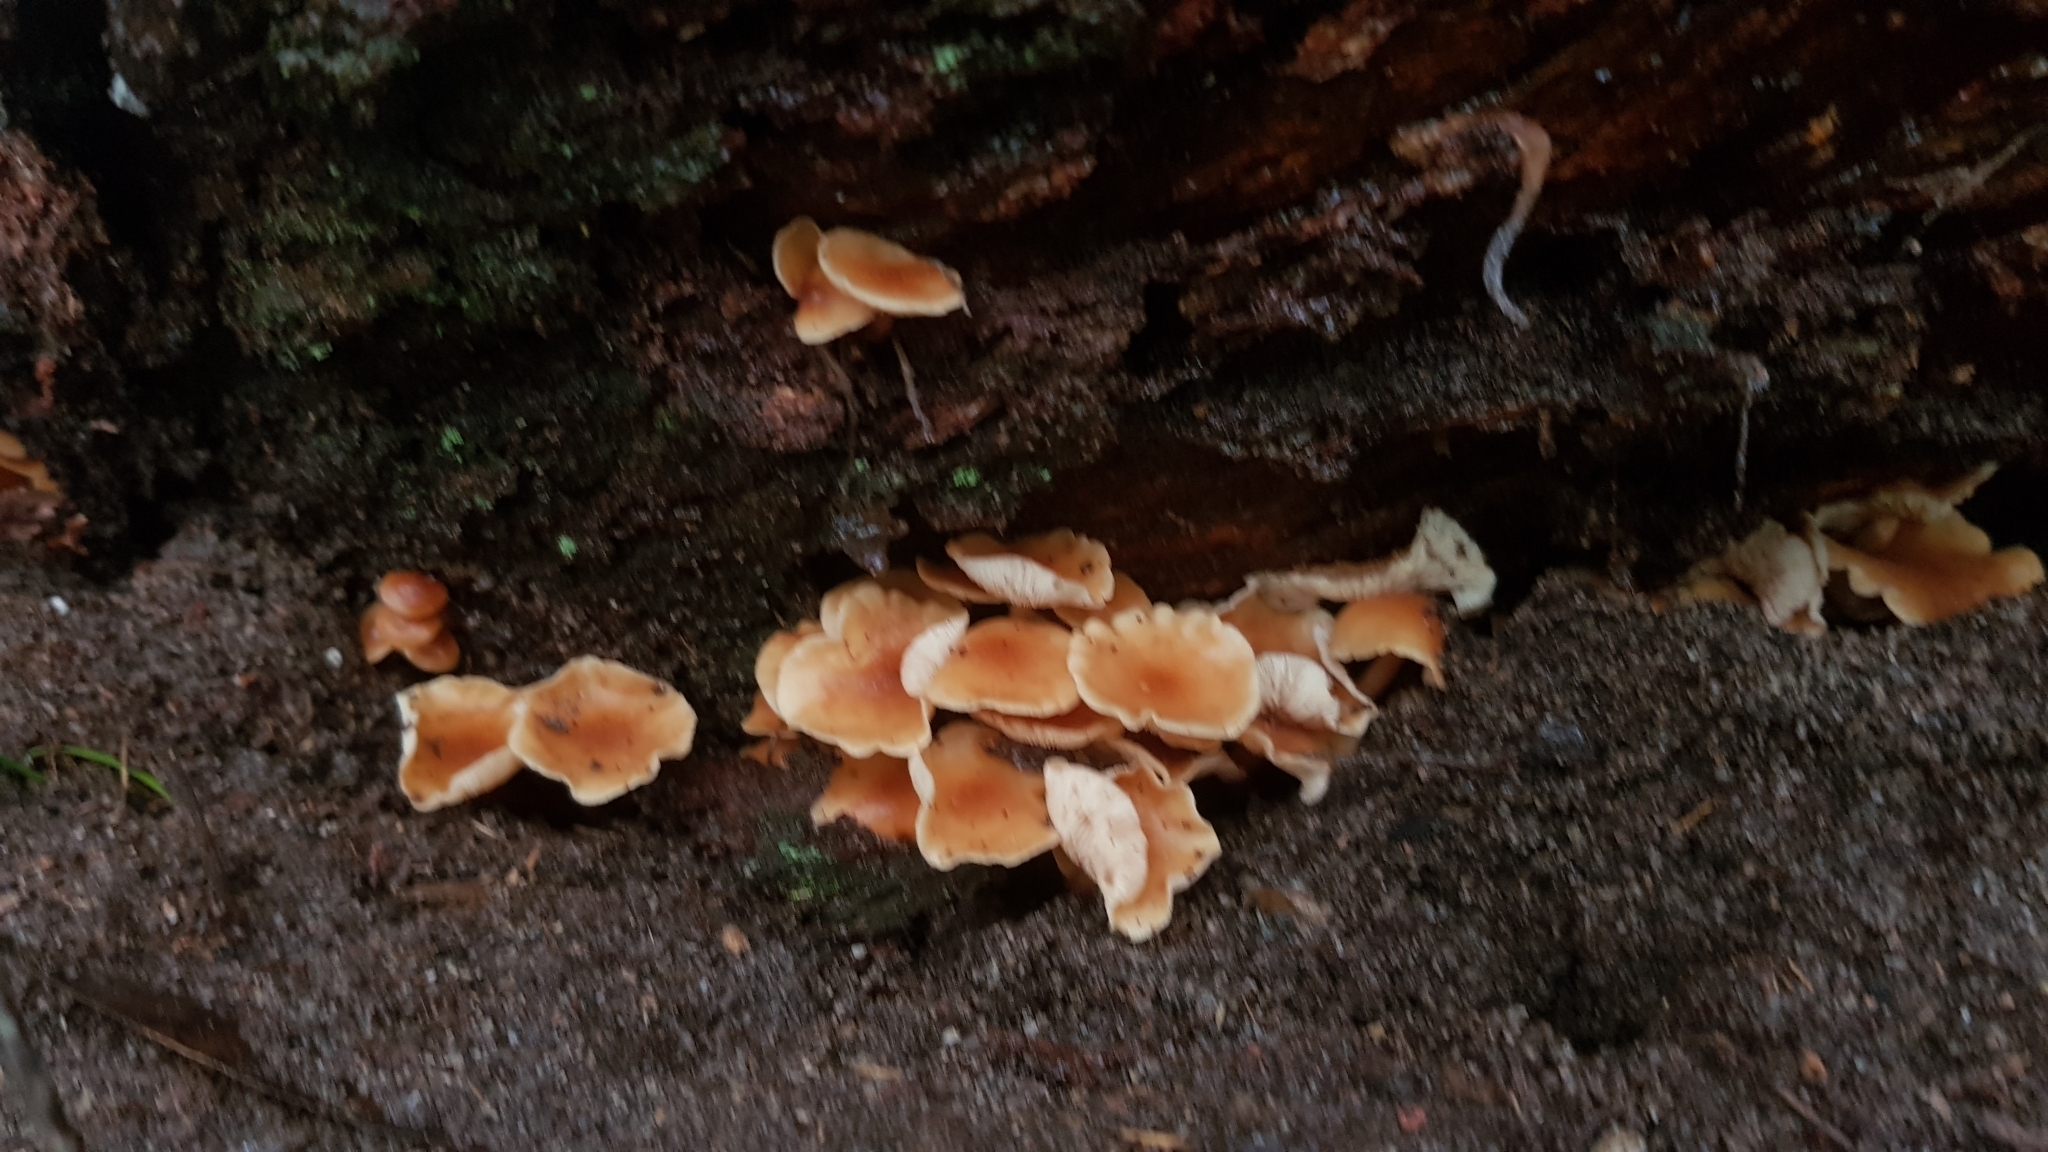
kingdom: Fungi
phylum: Basidiomycota
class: Agaricomycetes
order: Agaricales
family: Omphalotaceae
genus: Rhodocollybia
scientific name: Rhodocollybia
